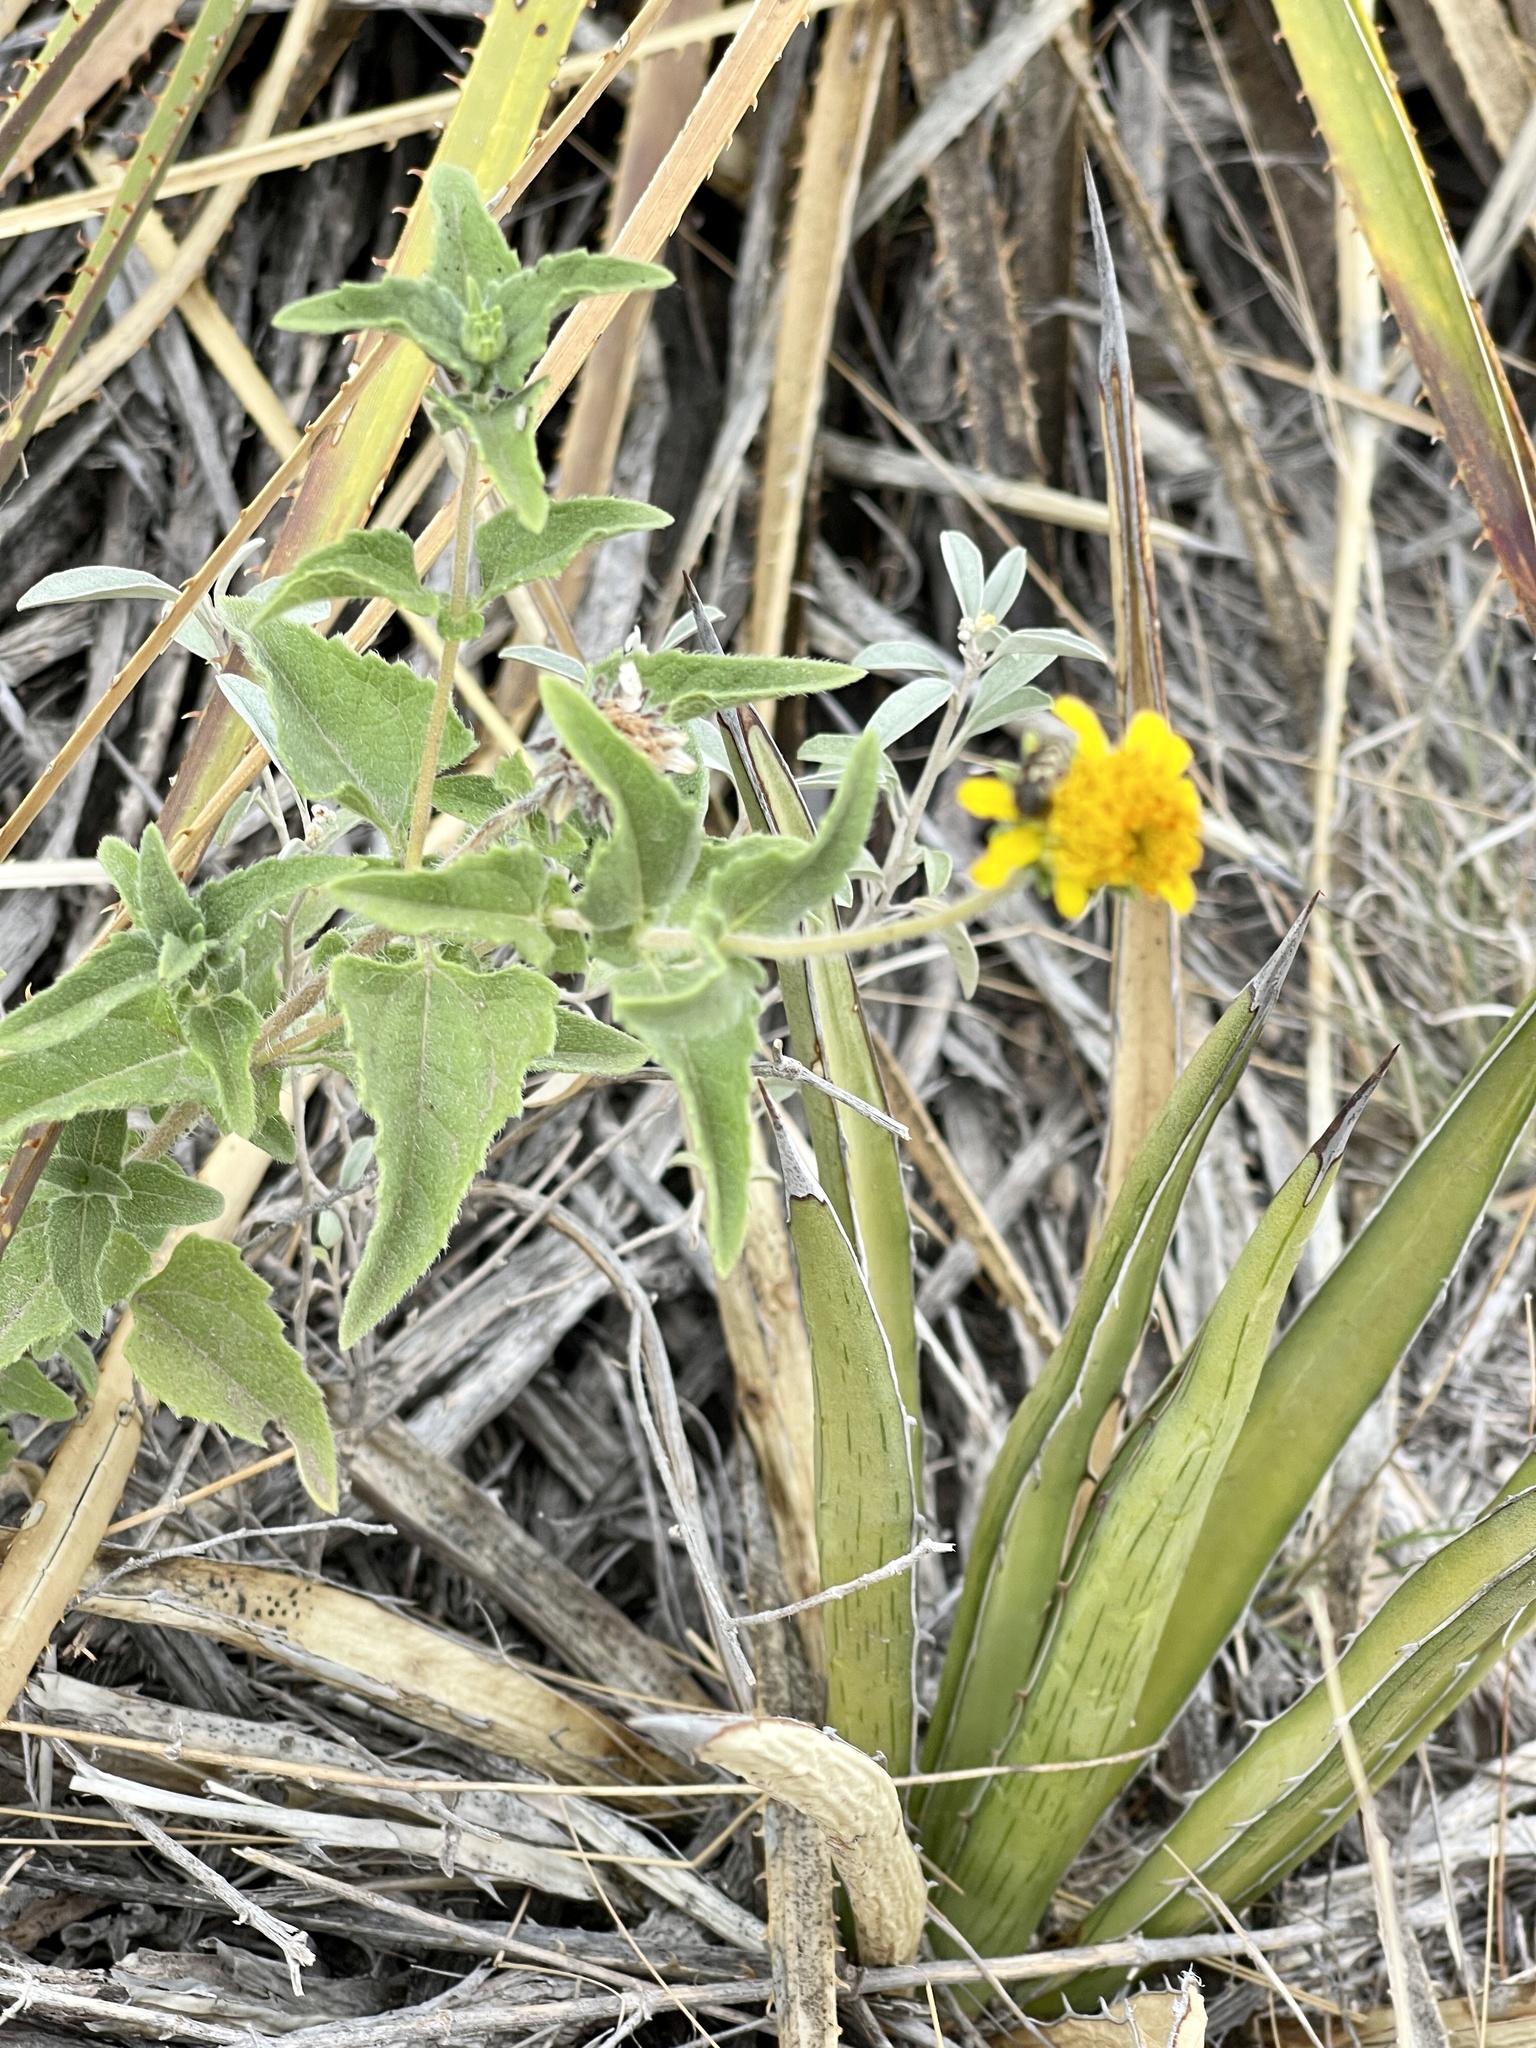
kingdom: Plantae
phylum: Tracheophyta
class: Magnoliopsida
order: Asterales
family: Asteraceae
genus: Simsia
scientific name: Simsia calva
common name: Awnless bush-sunflower
